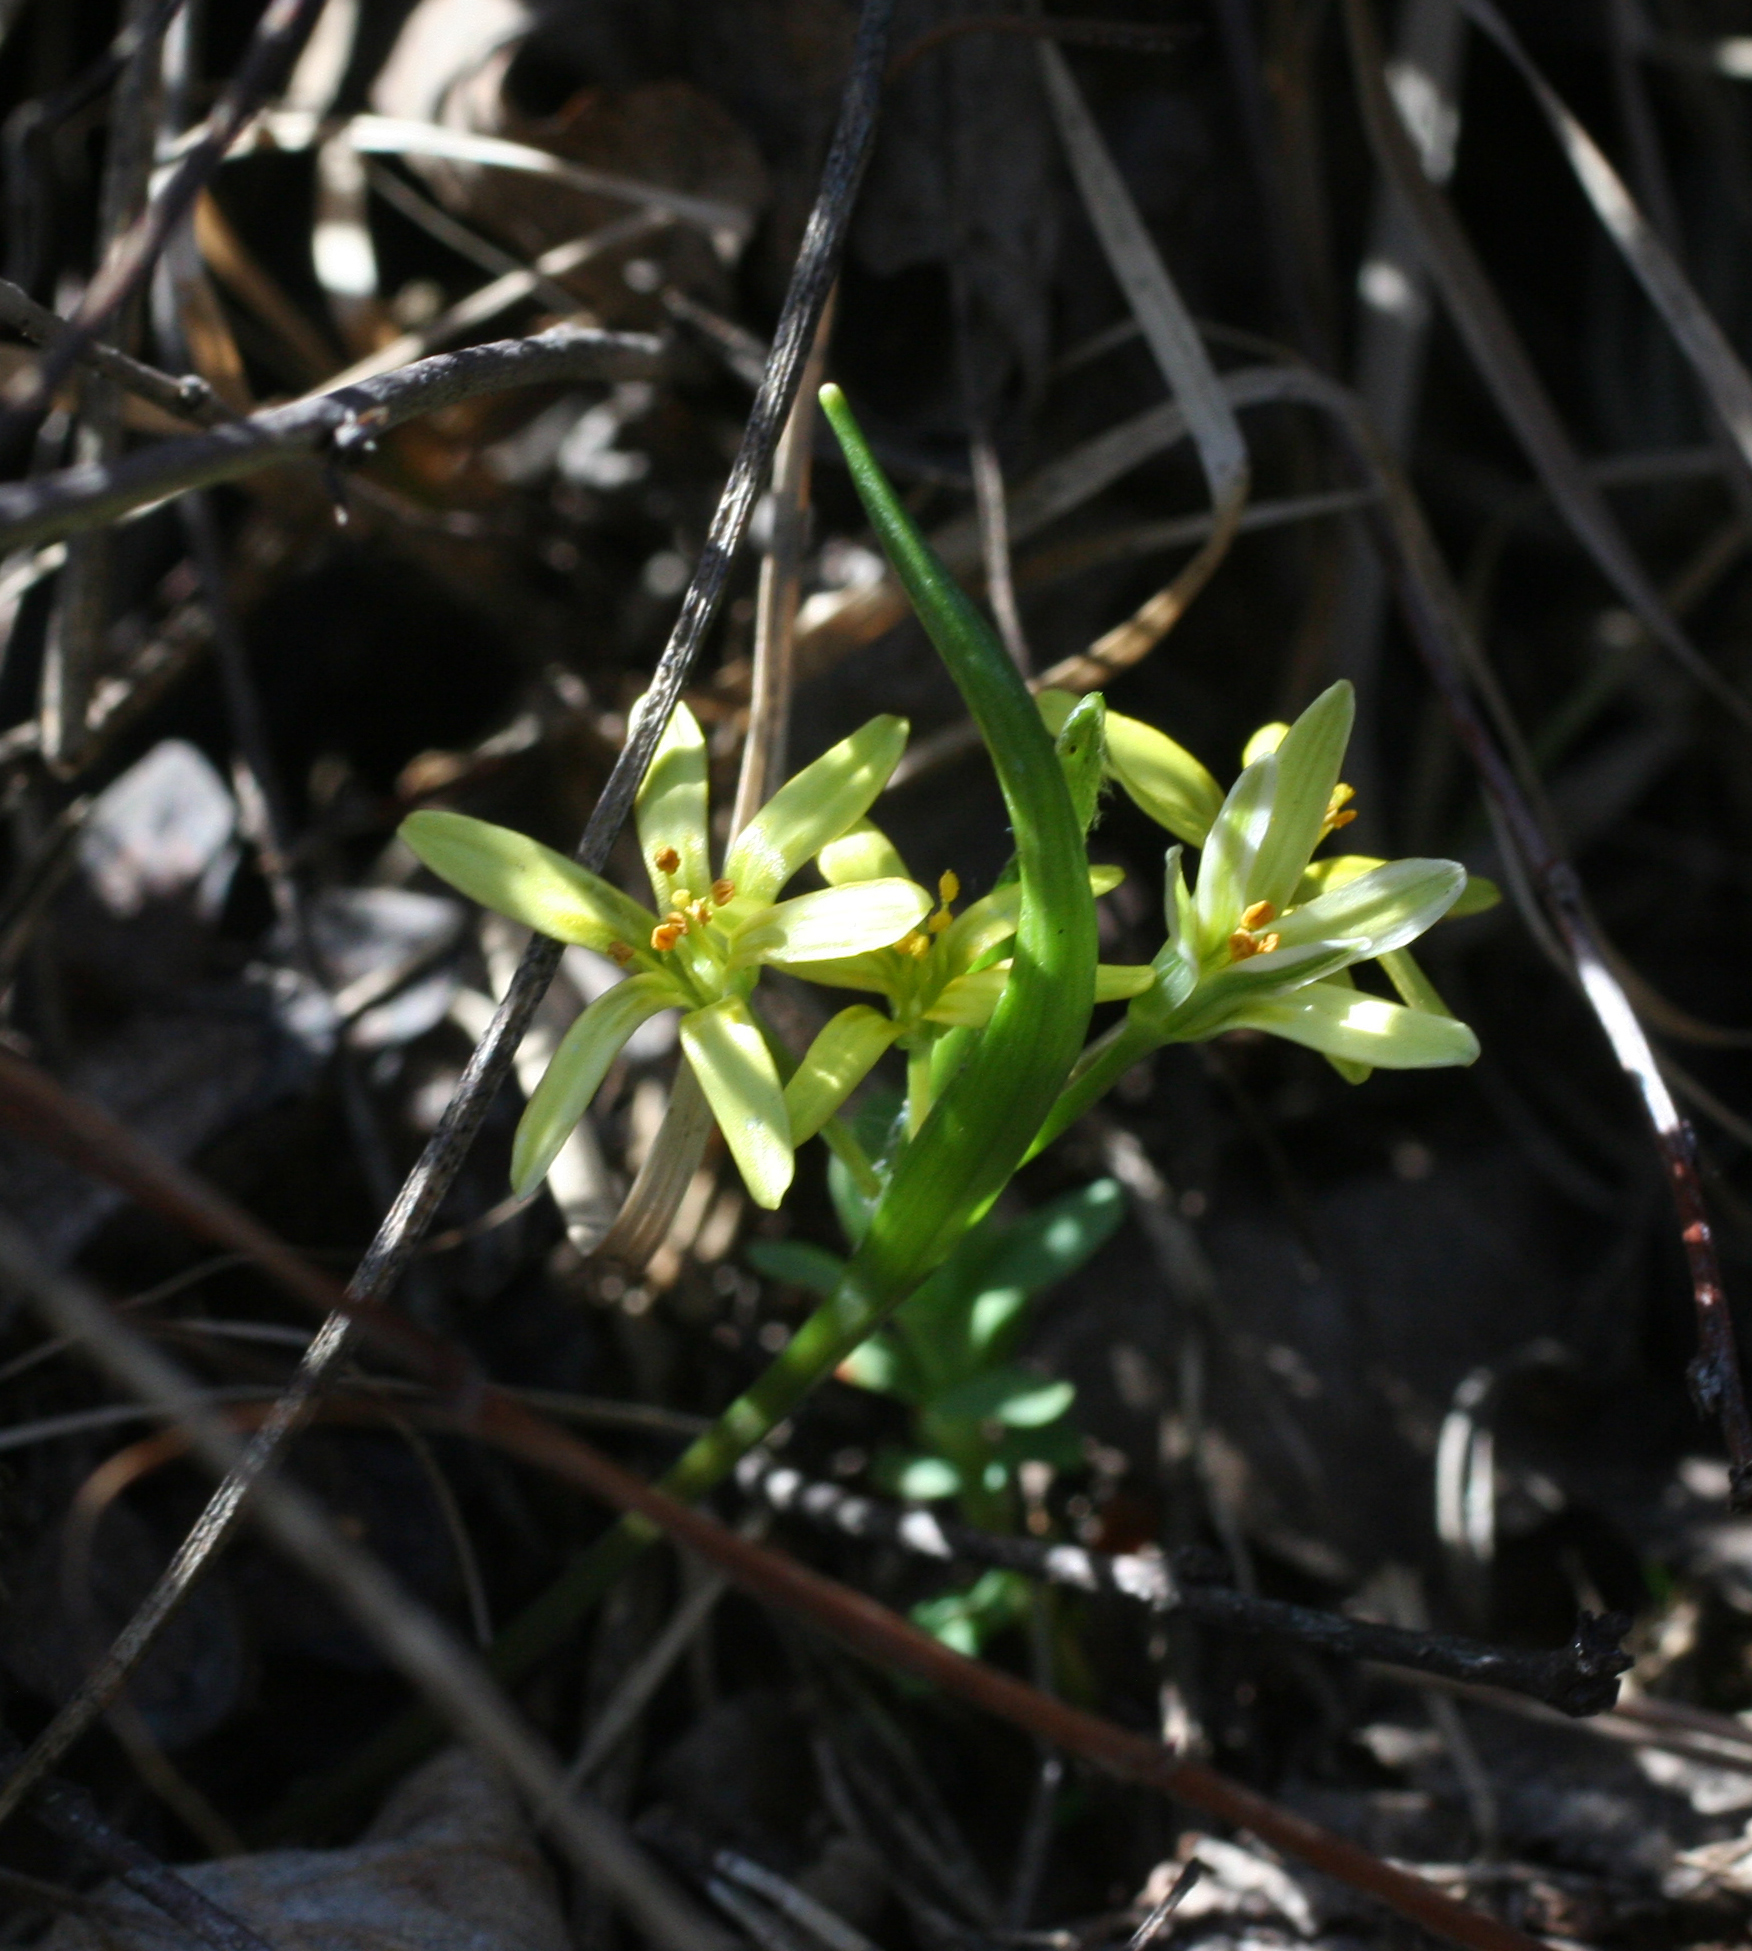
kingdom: Plantae
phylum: Tracheophyta
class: Liliopsida
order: Liliales
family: Liliaceae
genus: Gagea
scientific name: Gagea fedtschenkoana
